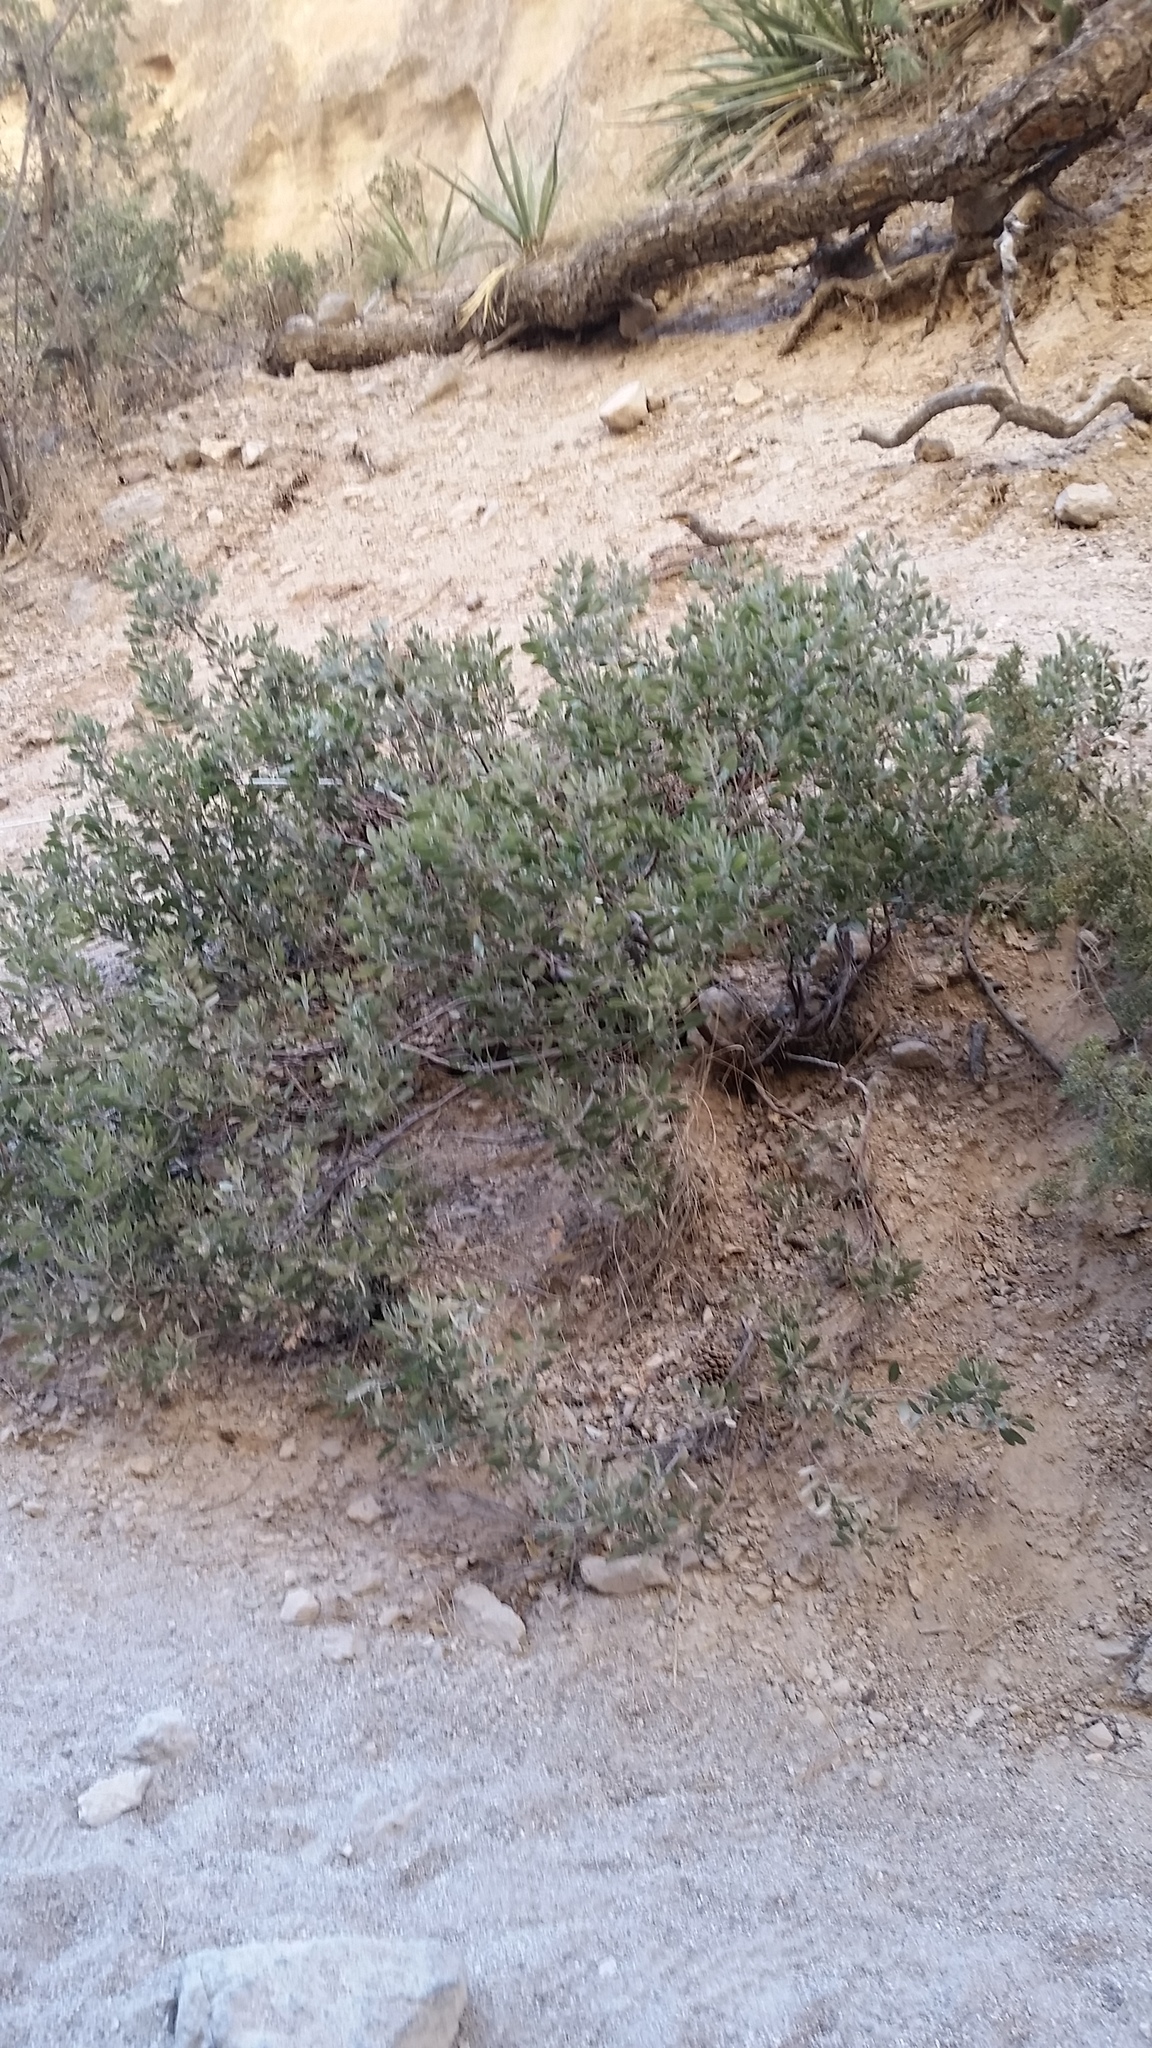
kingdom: Plantae
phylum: Tracheophyta
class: Magnoliopsida
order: Ericales
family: Ericaceae
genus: Arctostaphylos
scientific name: Arctostaphylos pungens
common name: Mexican manzanita
